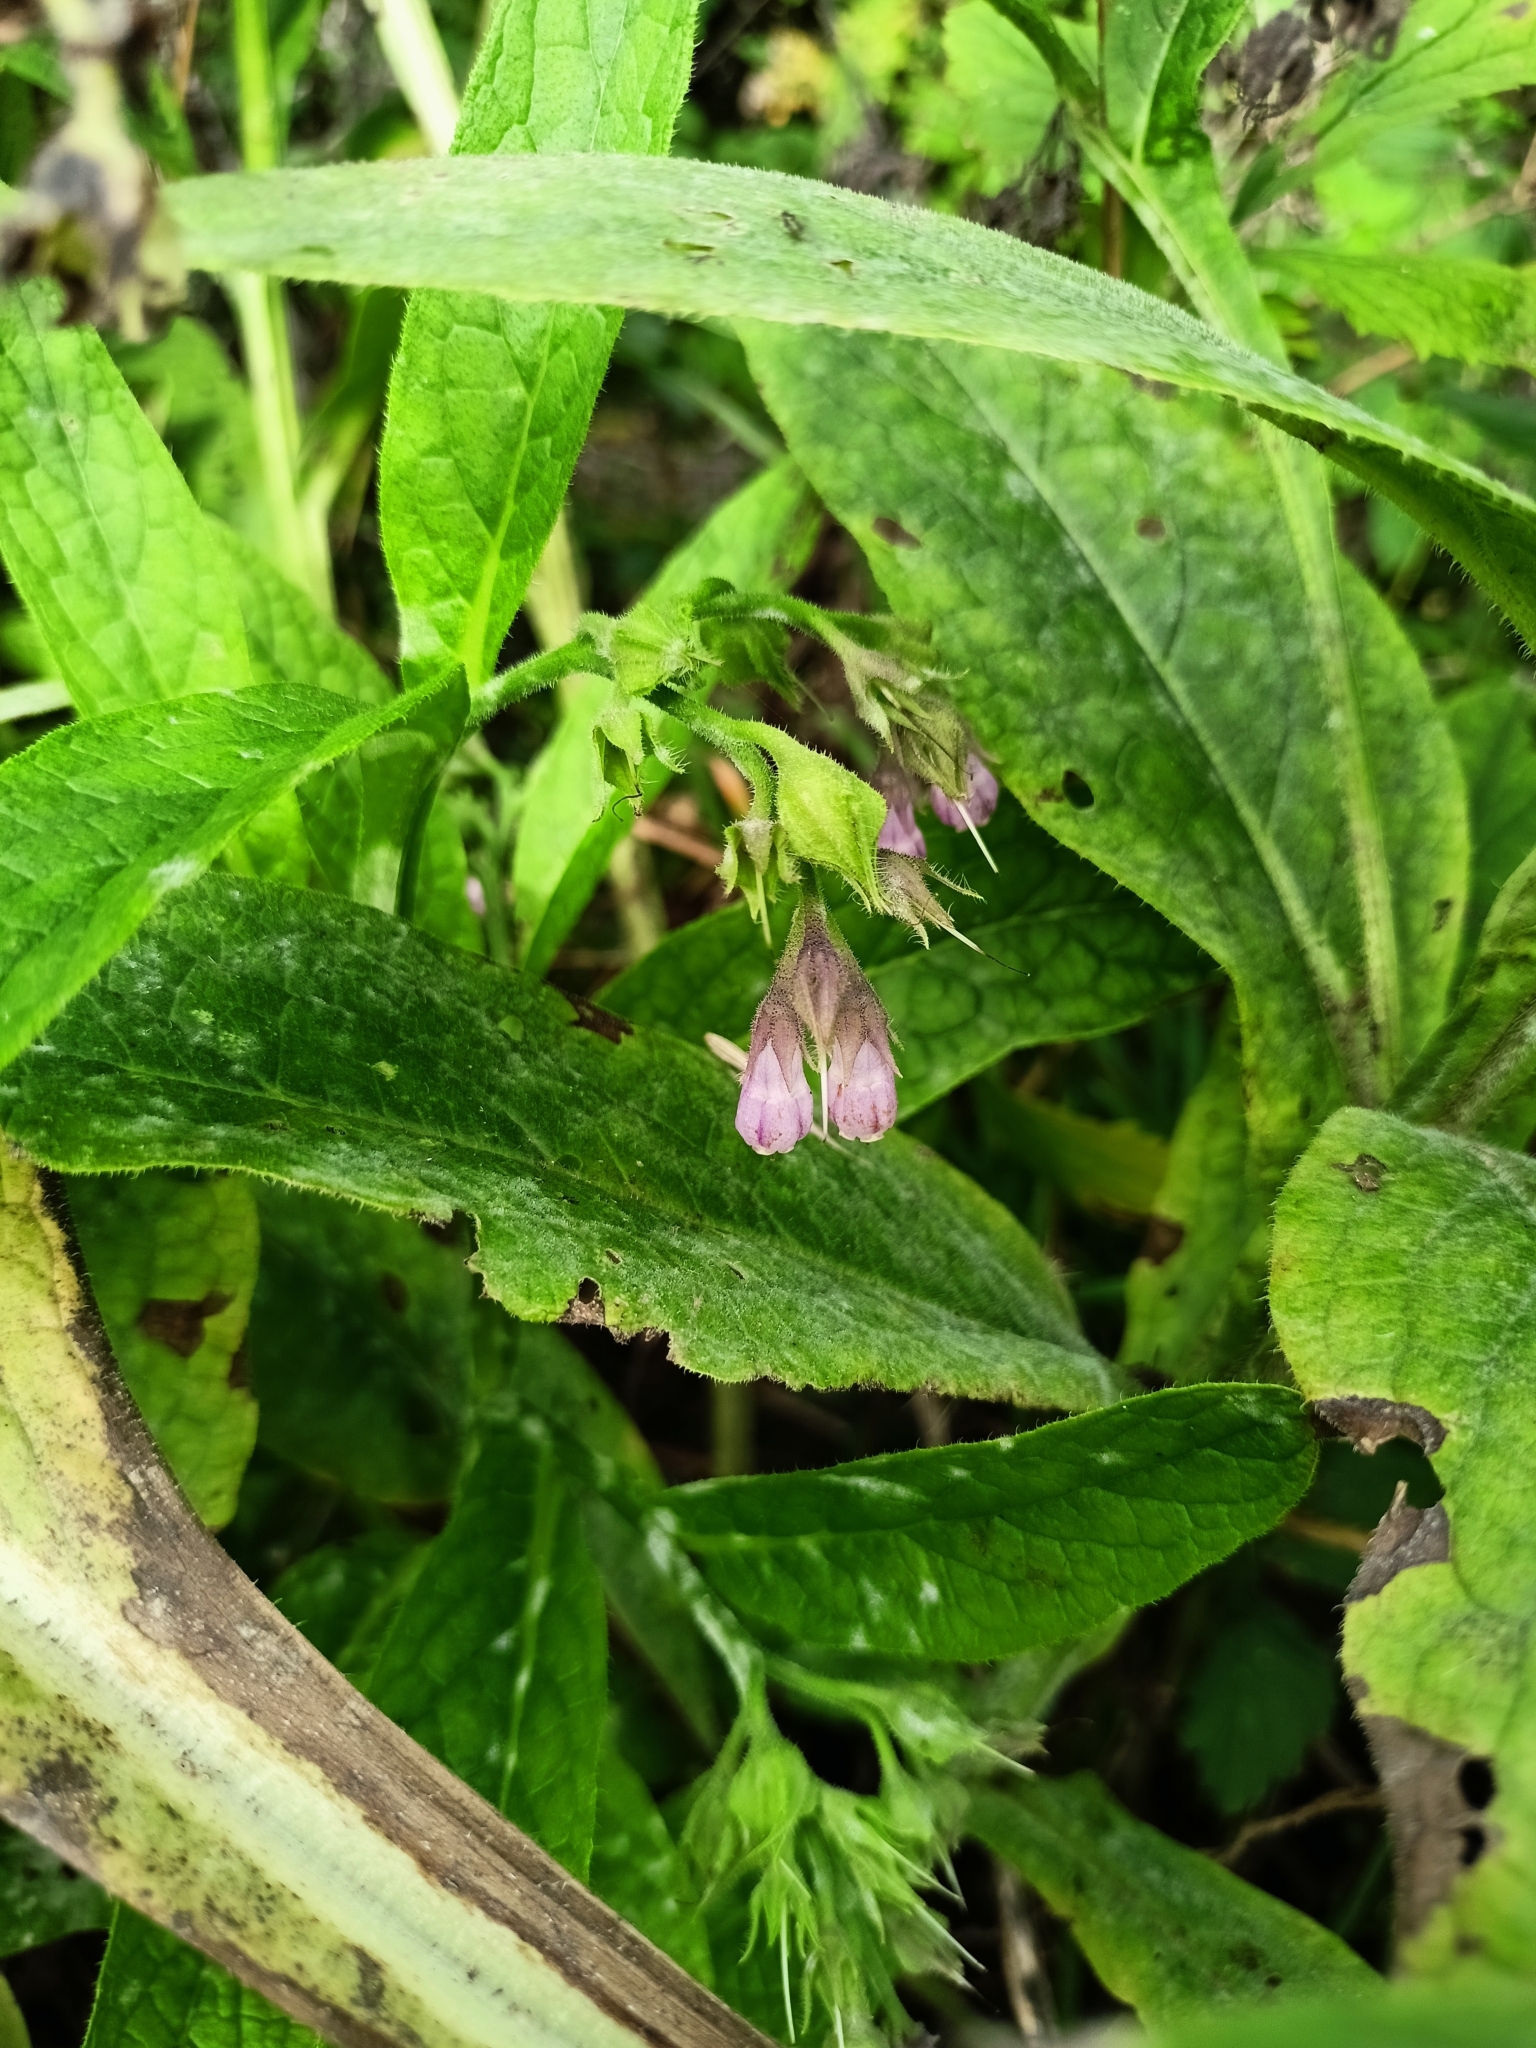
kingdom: Plantae
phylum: Tracheophyta
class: Magnoliopsida
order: Boraginales
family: Boraginaceae
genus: Symphytum
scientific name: Symphytum officinale
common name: Common comfrey
